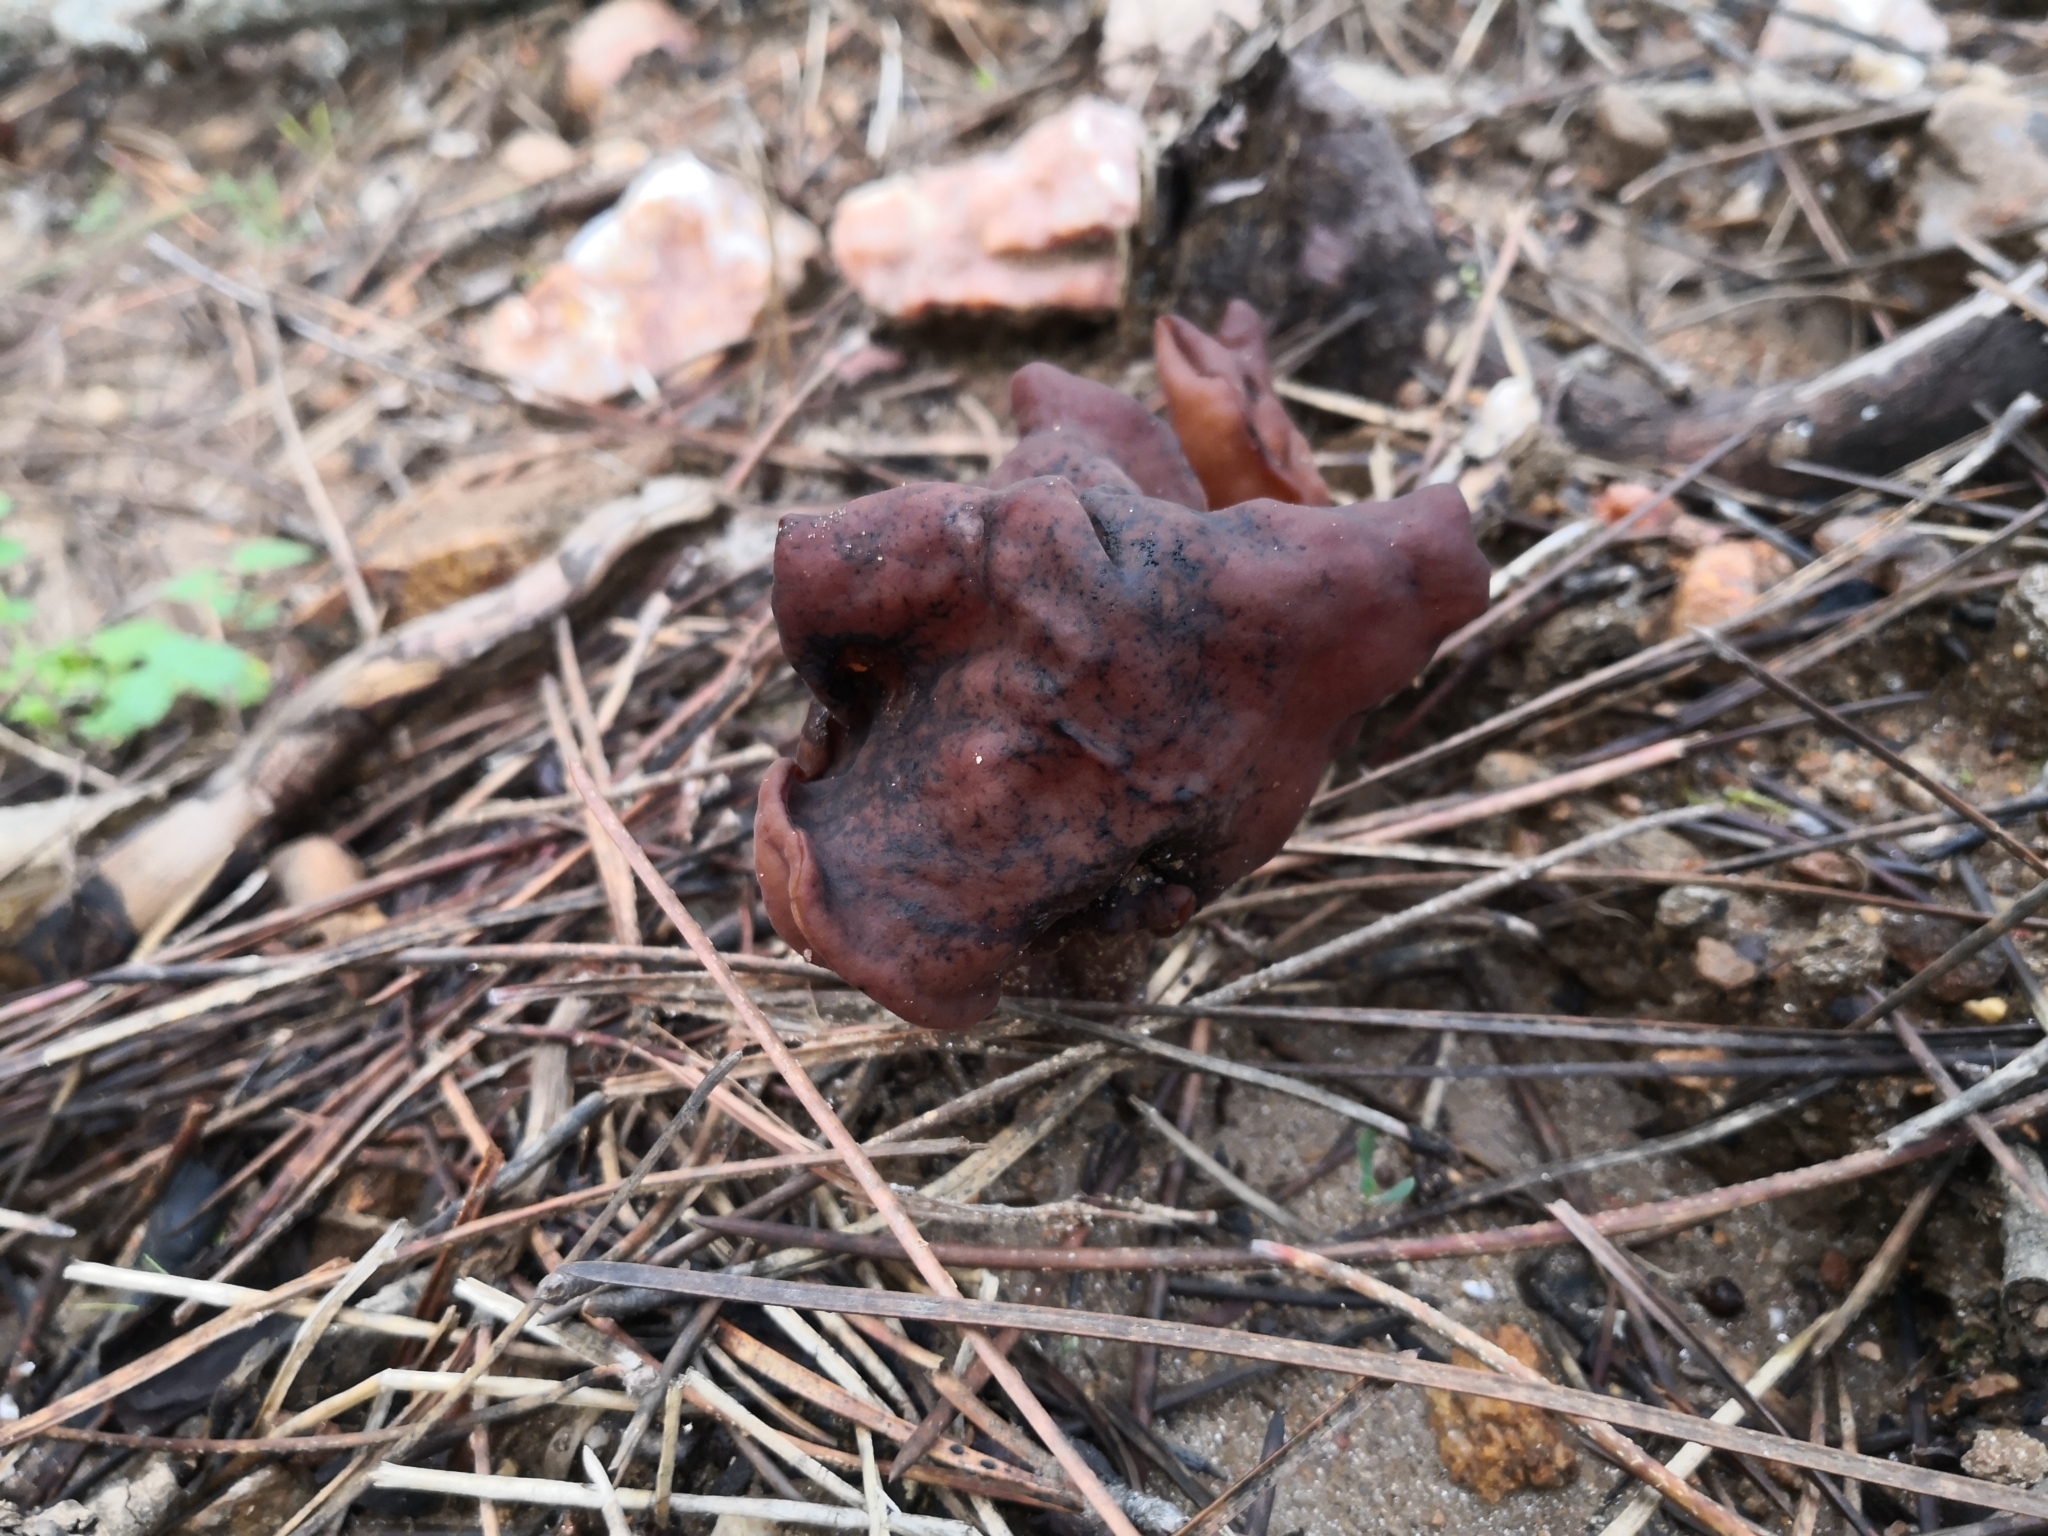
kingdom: Fungi
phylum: Ascomycota
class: Pezizomycetes
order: Pezizales
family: Discinaceae
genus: Gyromitra
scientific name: Gyromitra infula
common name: Pouched false morel
